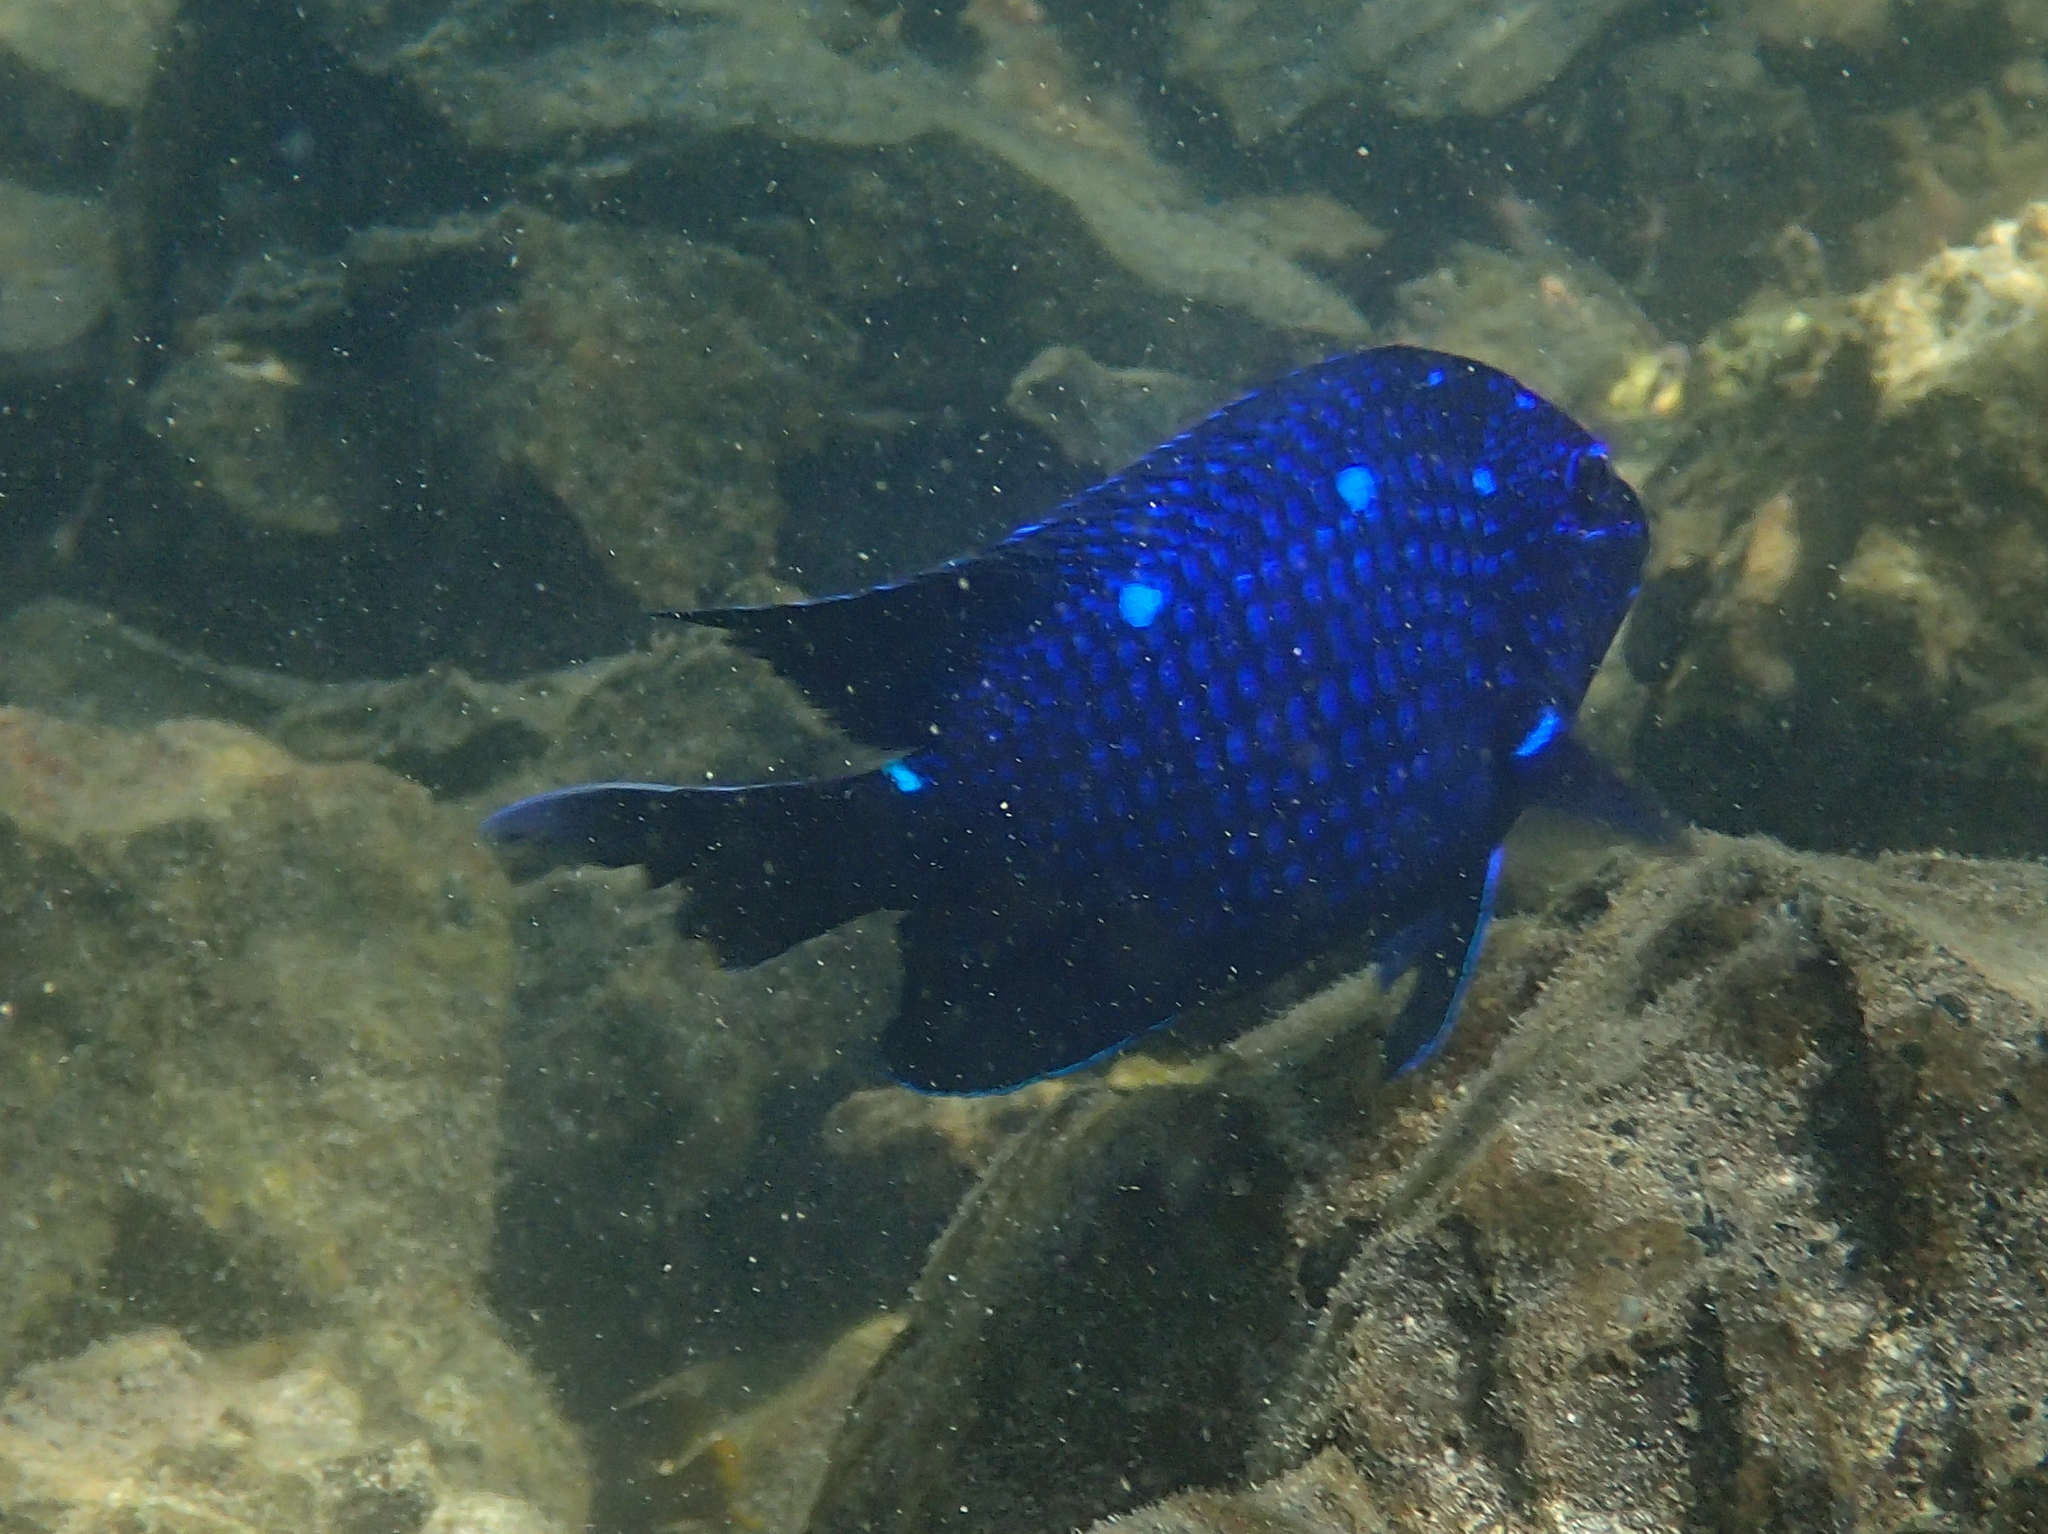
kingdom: Animalia
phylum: Chordata
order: Perciformes
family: Pomacentridae
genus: Microspathodon
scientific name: Microspathodon dorsalis
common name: Giant damselfish
